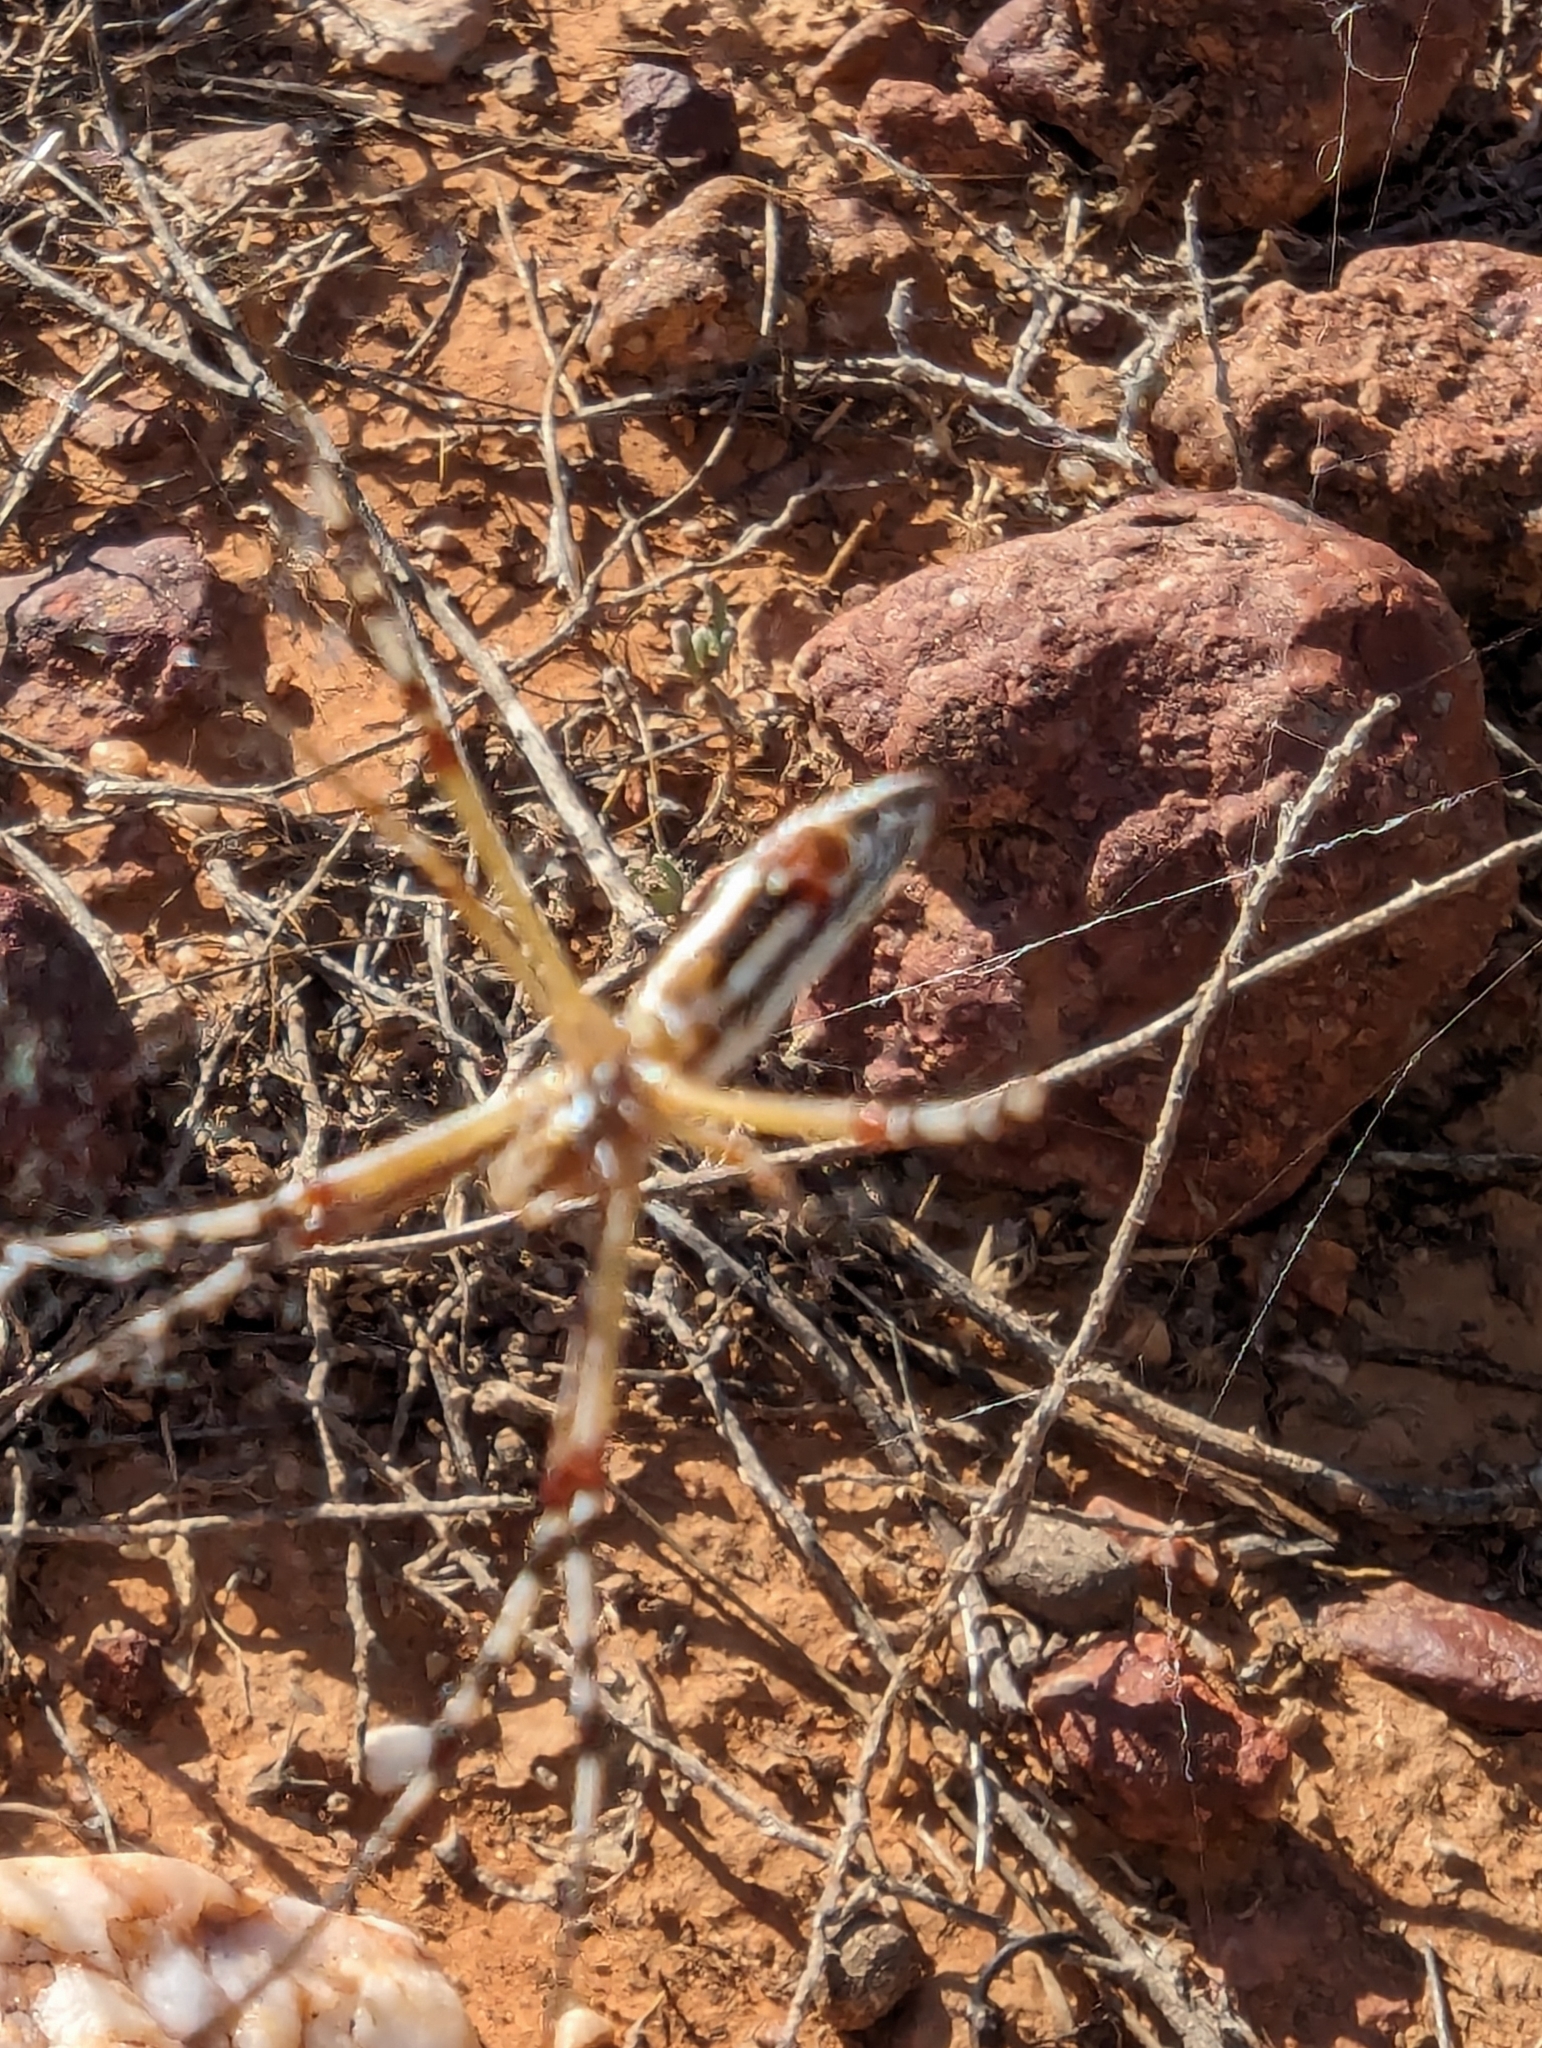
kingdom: Animalia
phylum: Arthropoda
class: Arachnida
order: Araneae
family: Araneidae
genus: Argiope
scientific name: Argiope protensa
